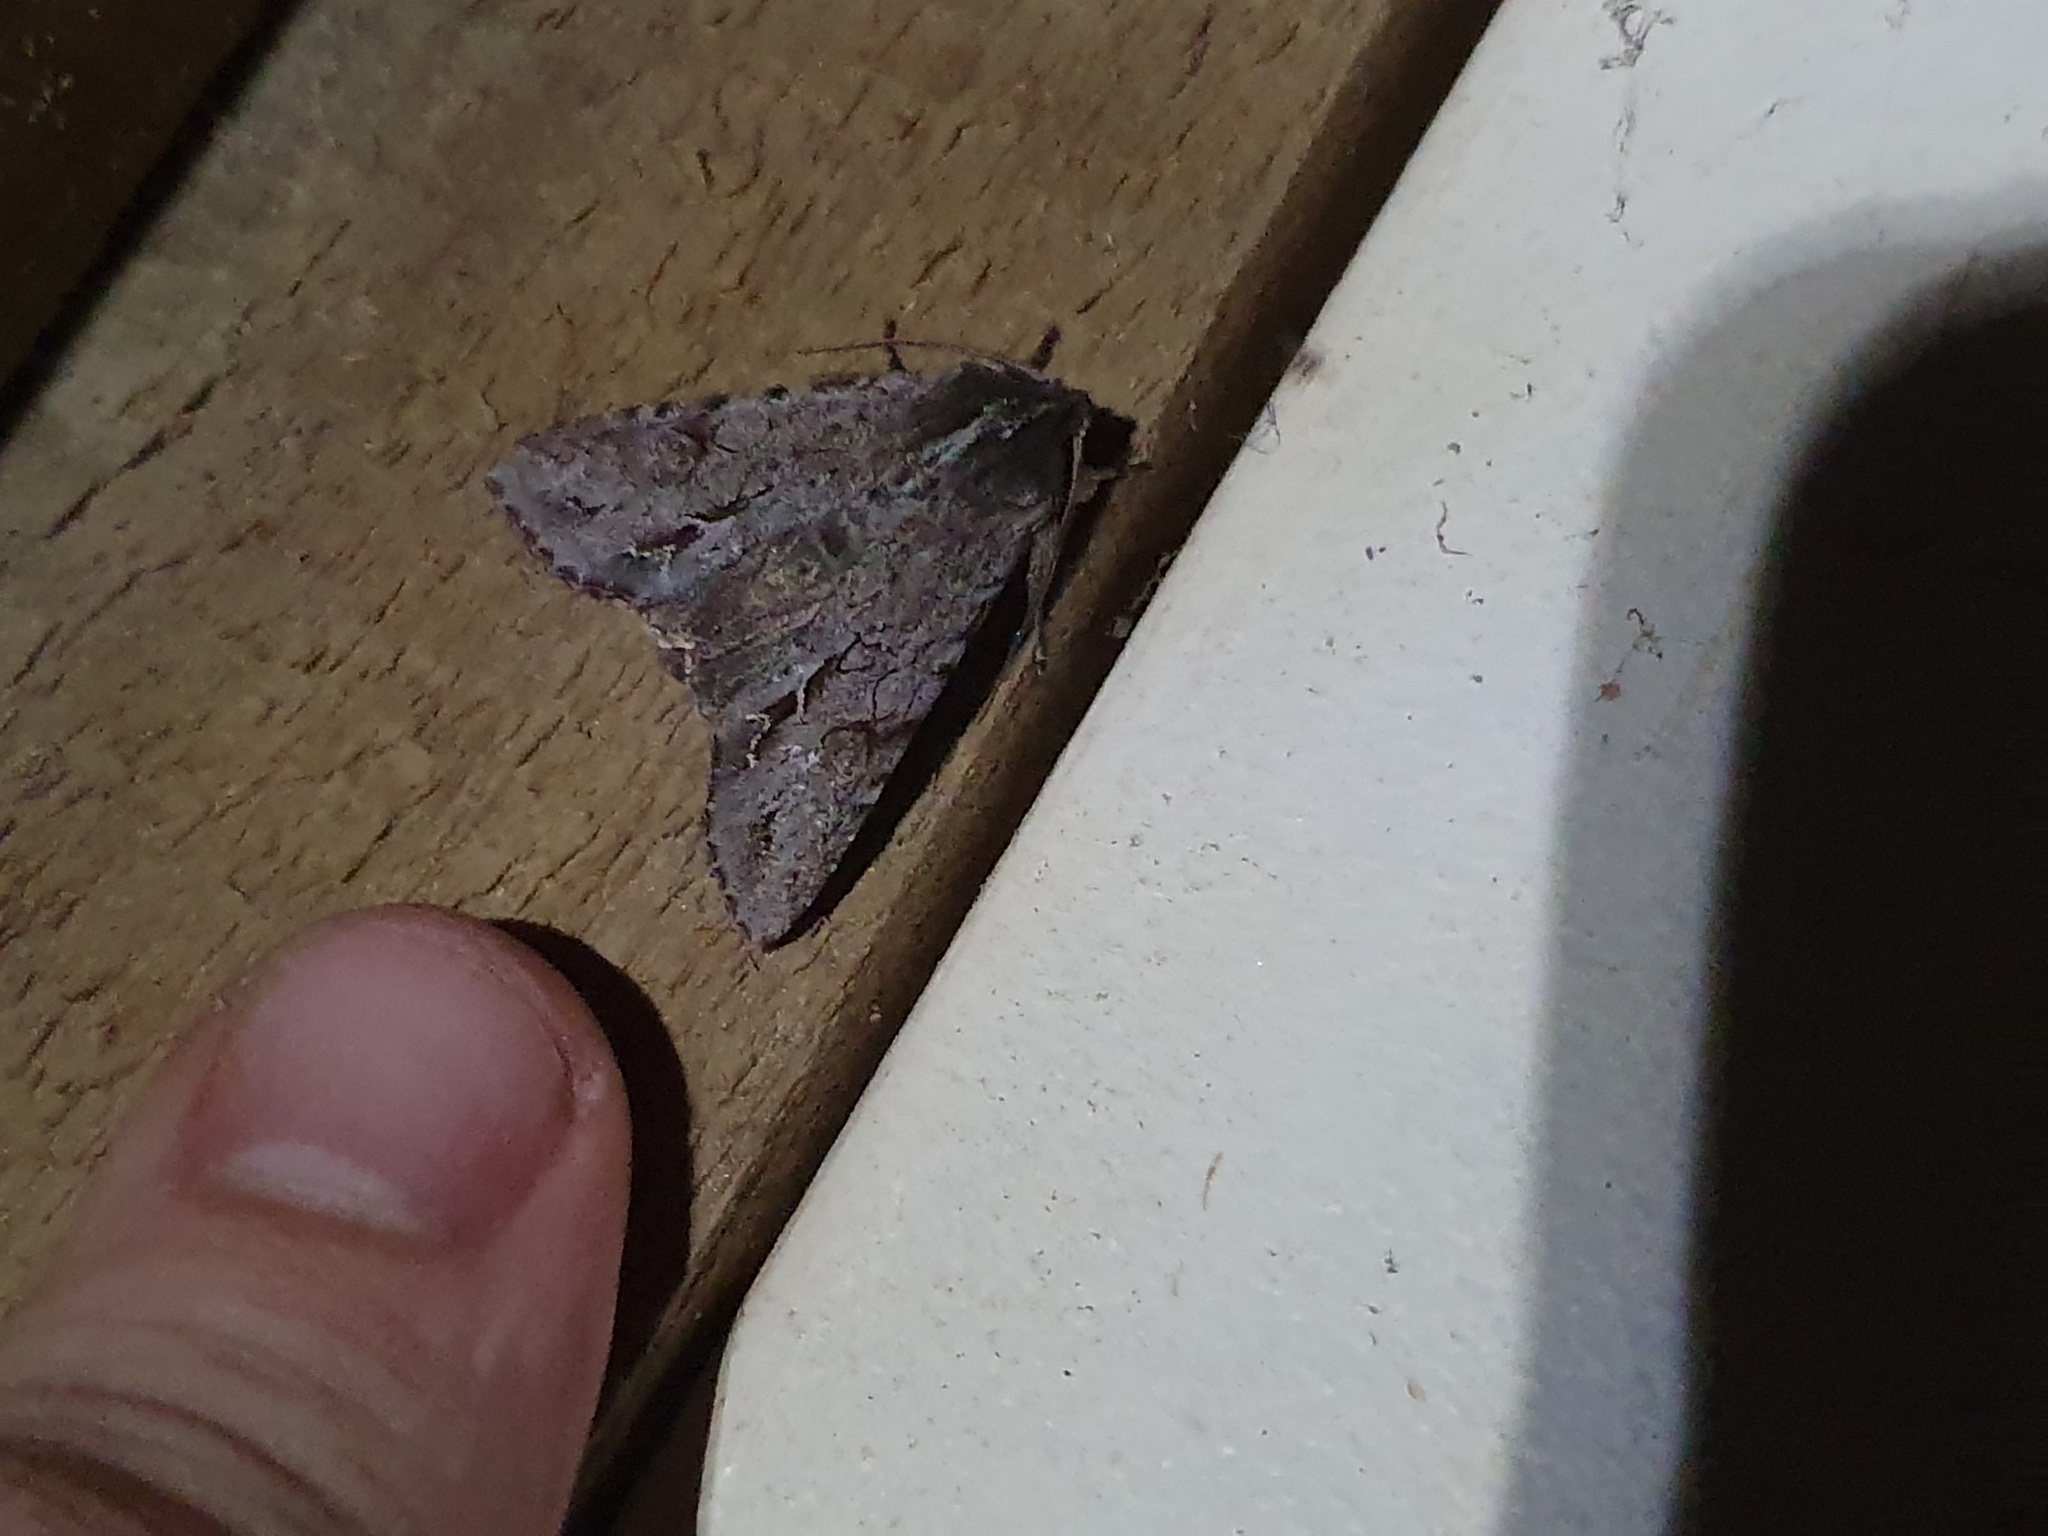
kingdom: Animalia
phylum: Arthropoda
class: Insecta
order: Lepidoptera
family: Noctuidae
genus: Ichneutica
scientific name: Ichneutica
